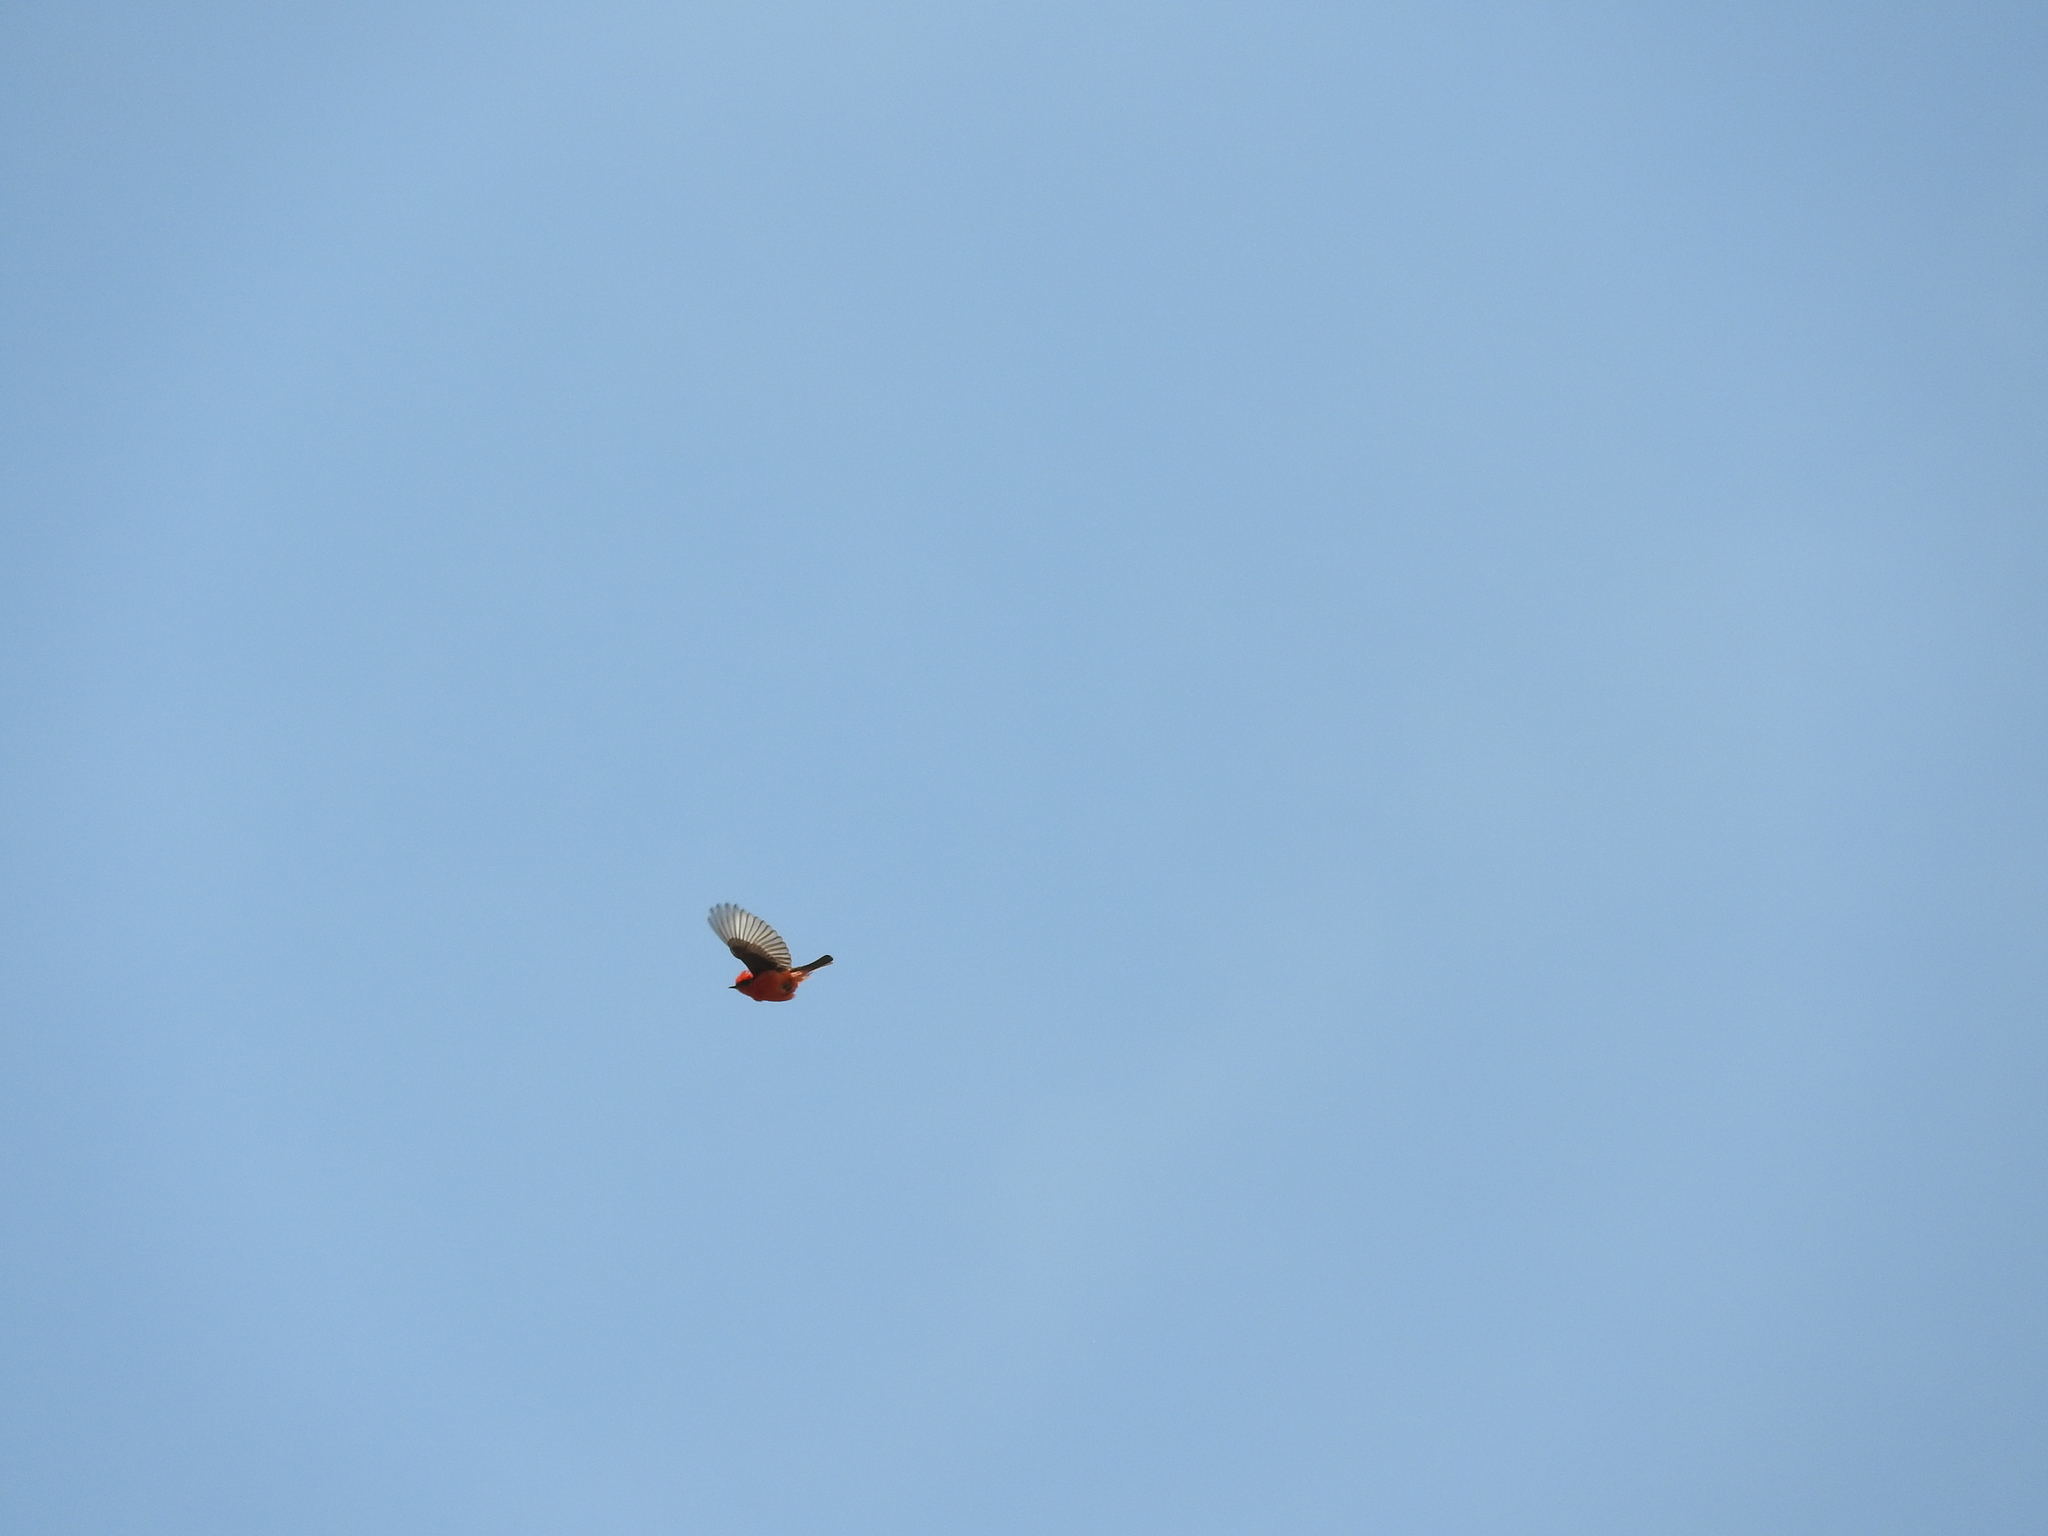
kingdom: Animalia
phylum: Chordata
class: Aves
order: Passeriformes
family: Tyrannidae
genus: Pyrocephalus
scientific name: Pyrocephalus rubinus
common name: Vermilion flycatcher
